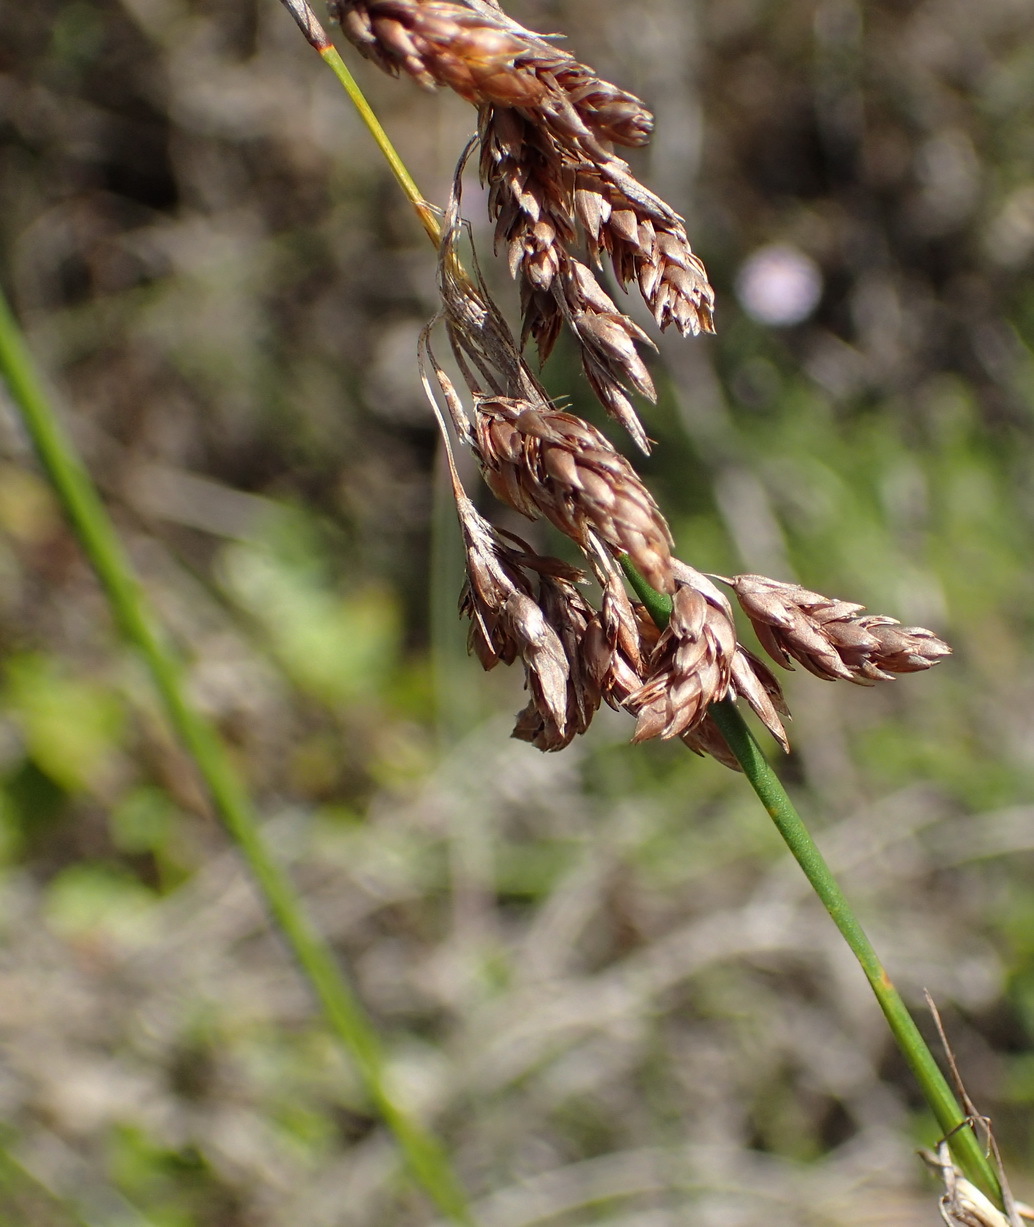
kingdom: Plantae
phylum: Tracheophyta
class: Liliopsida
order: Poales
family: Restionaceae
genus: Thamnochortus
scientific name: Thamnochortus insignis
